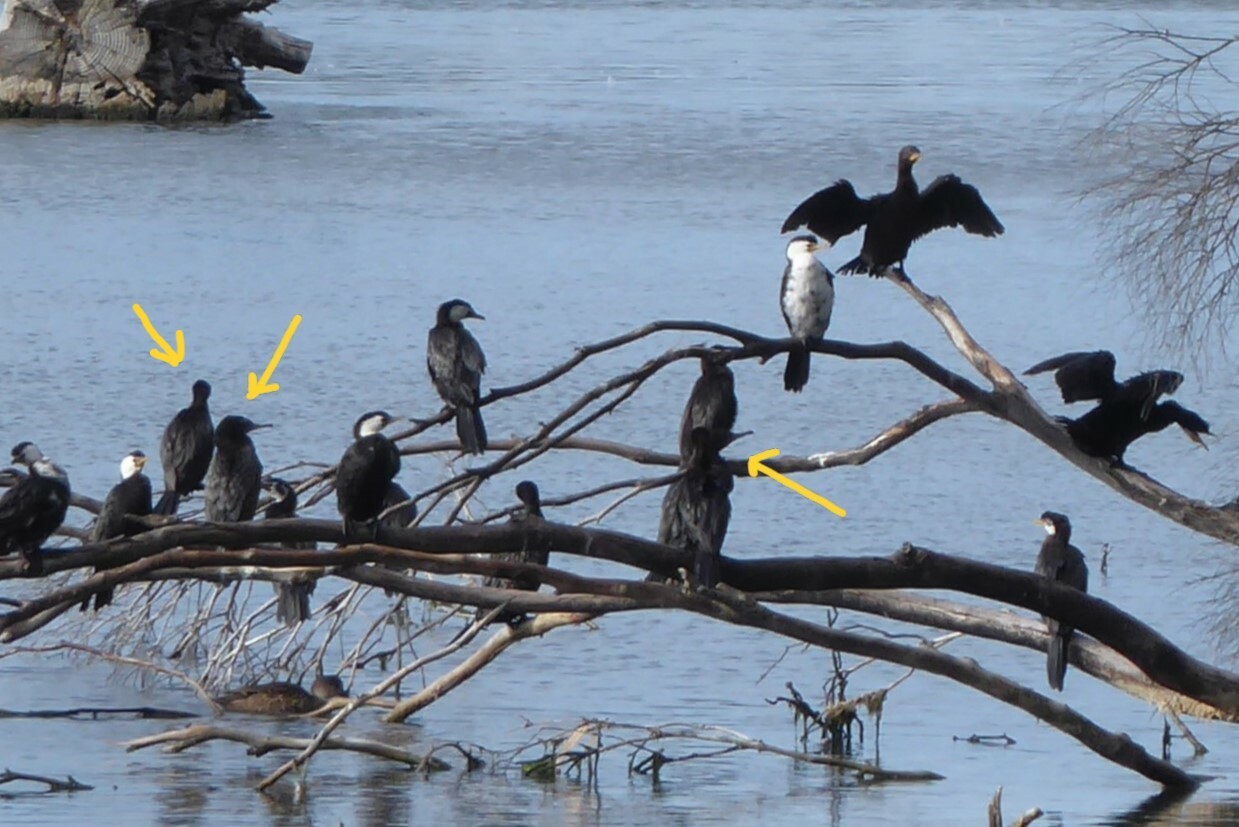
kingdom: Animalia
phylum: Chordata
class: Aves
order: Suliformes
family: Phalacrocoracidae
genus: Phalacrocorax
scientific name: Phalacrocorax sulcirostris
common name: Little black cormorant
